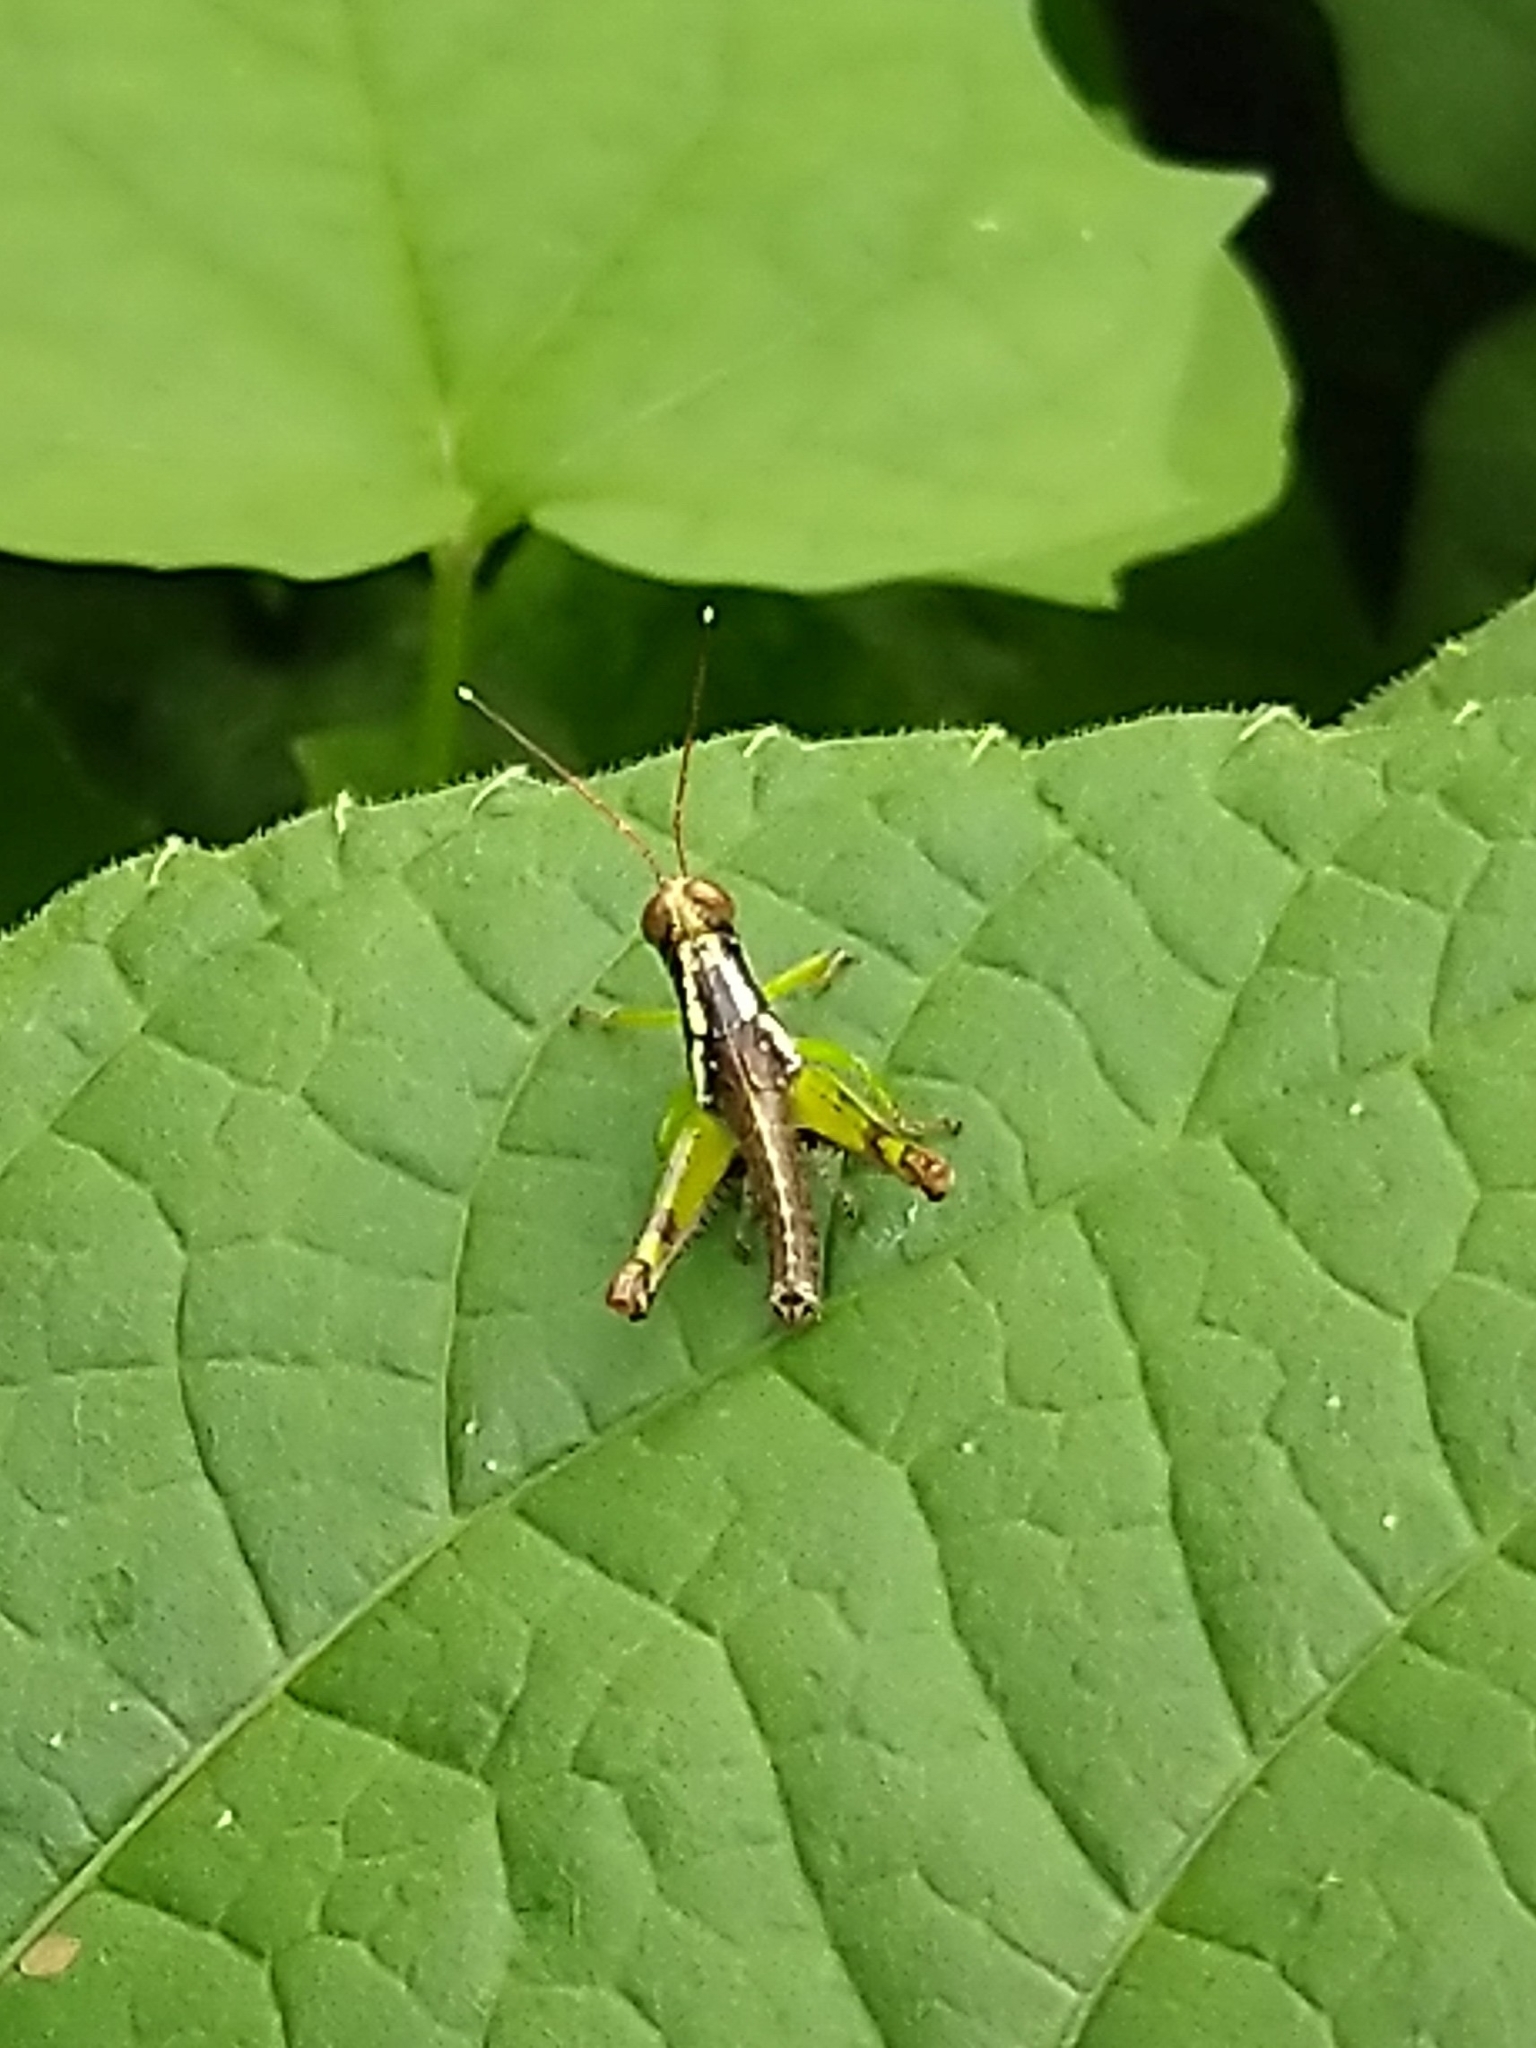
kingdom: Animalia
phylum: Arthropoda
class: Insecta
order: Orthoptera
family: Acrididae
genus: Pirithoicus
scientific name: Pirithoicus ophthalmicus
